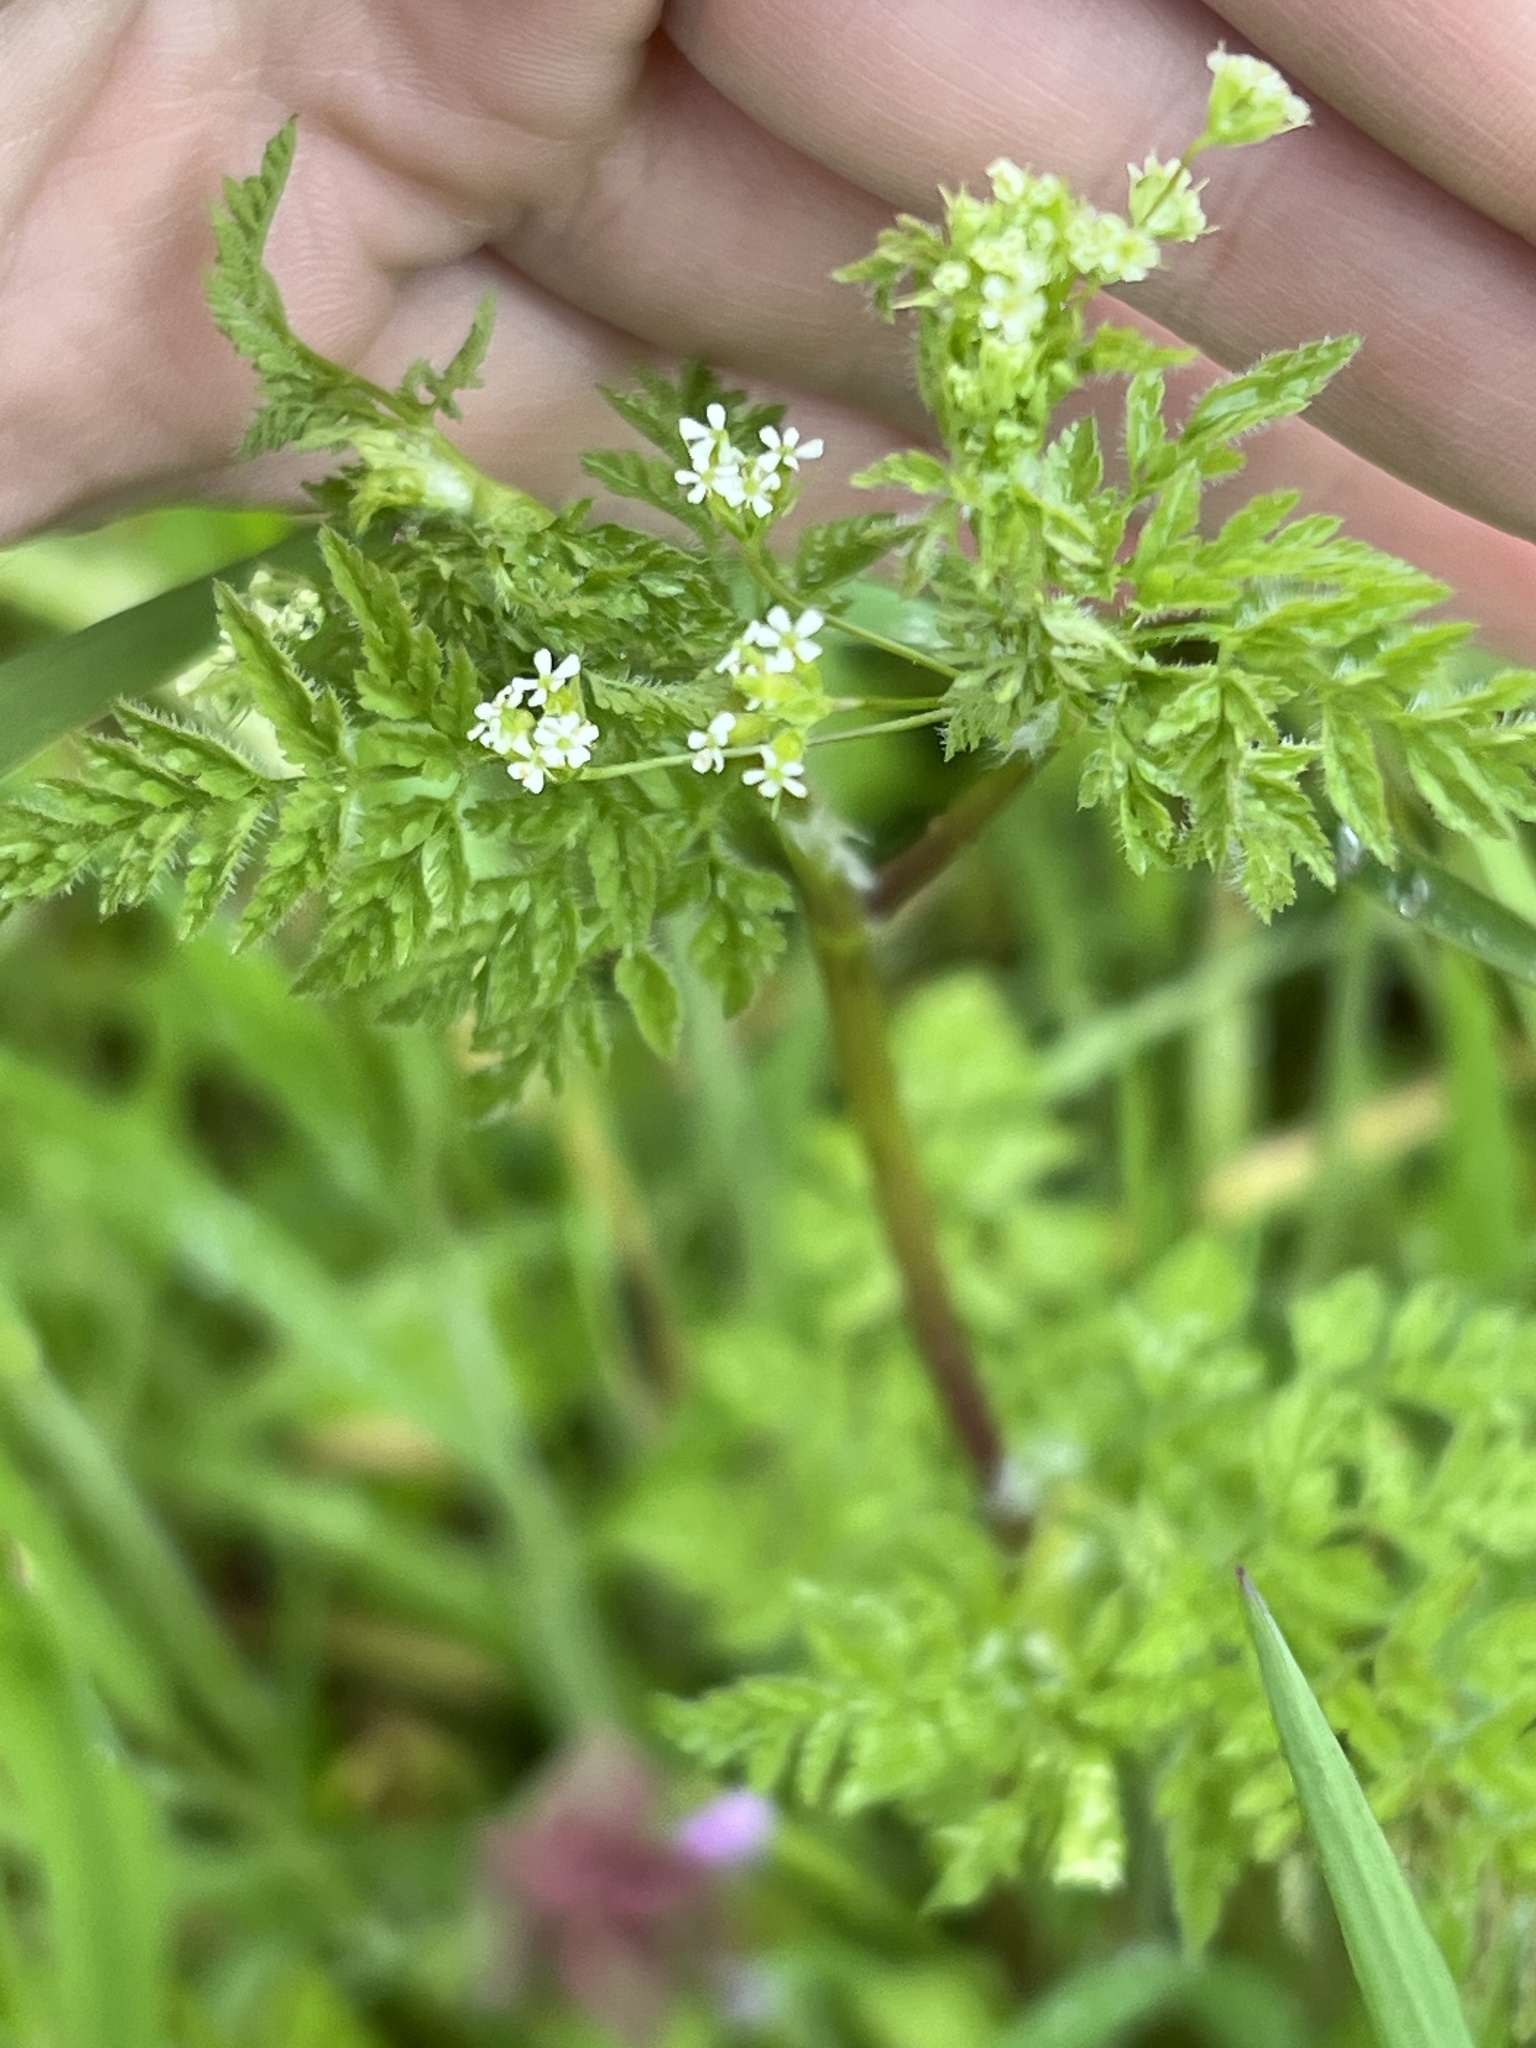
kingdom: Plantae
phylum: Tracheophyta
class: Magnoliopsida
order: Apiales
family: Apiaceae
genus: Anthriscus
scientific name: Anthriscus caucalis
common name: Bur chervil
